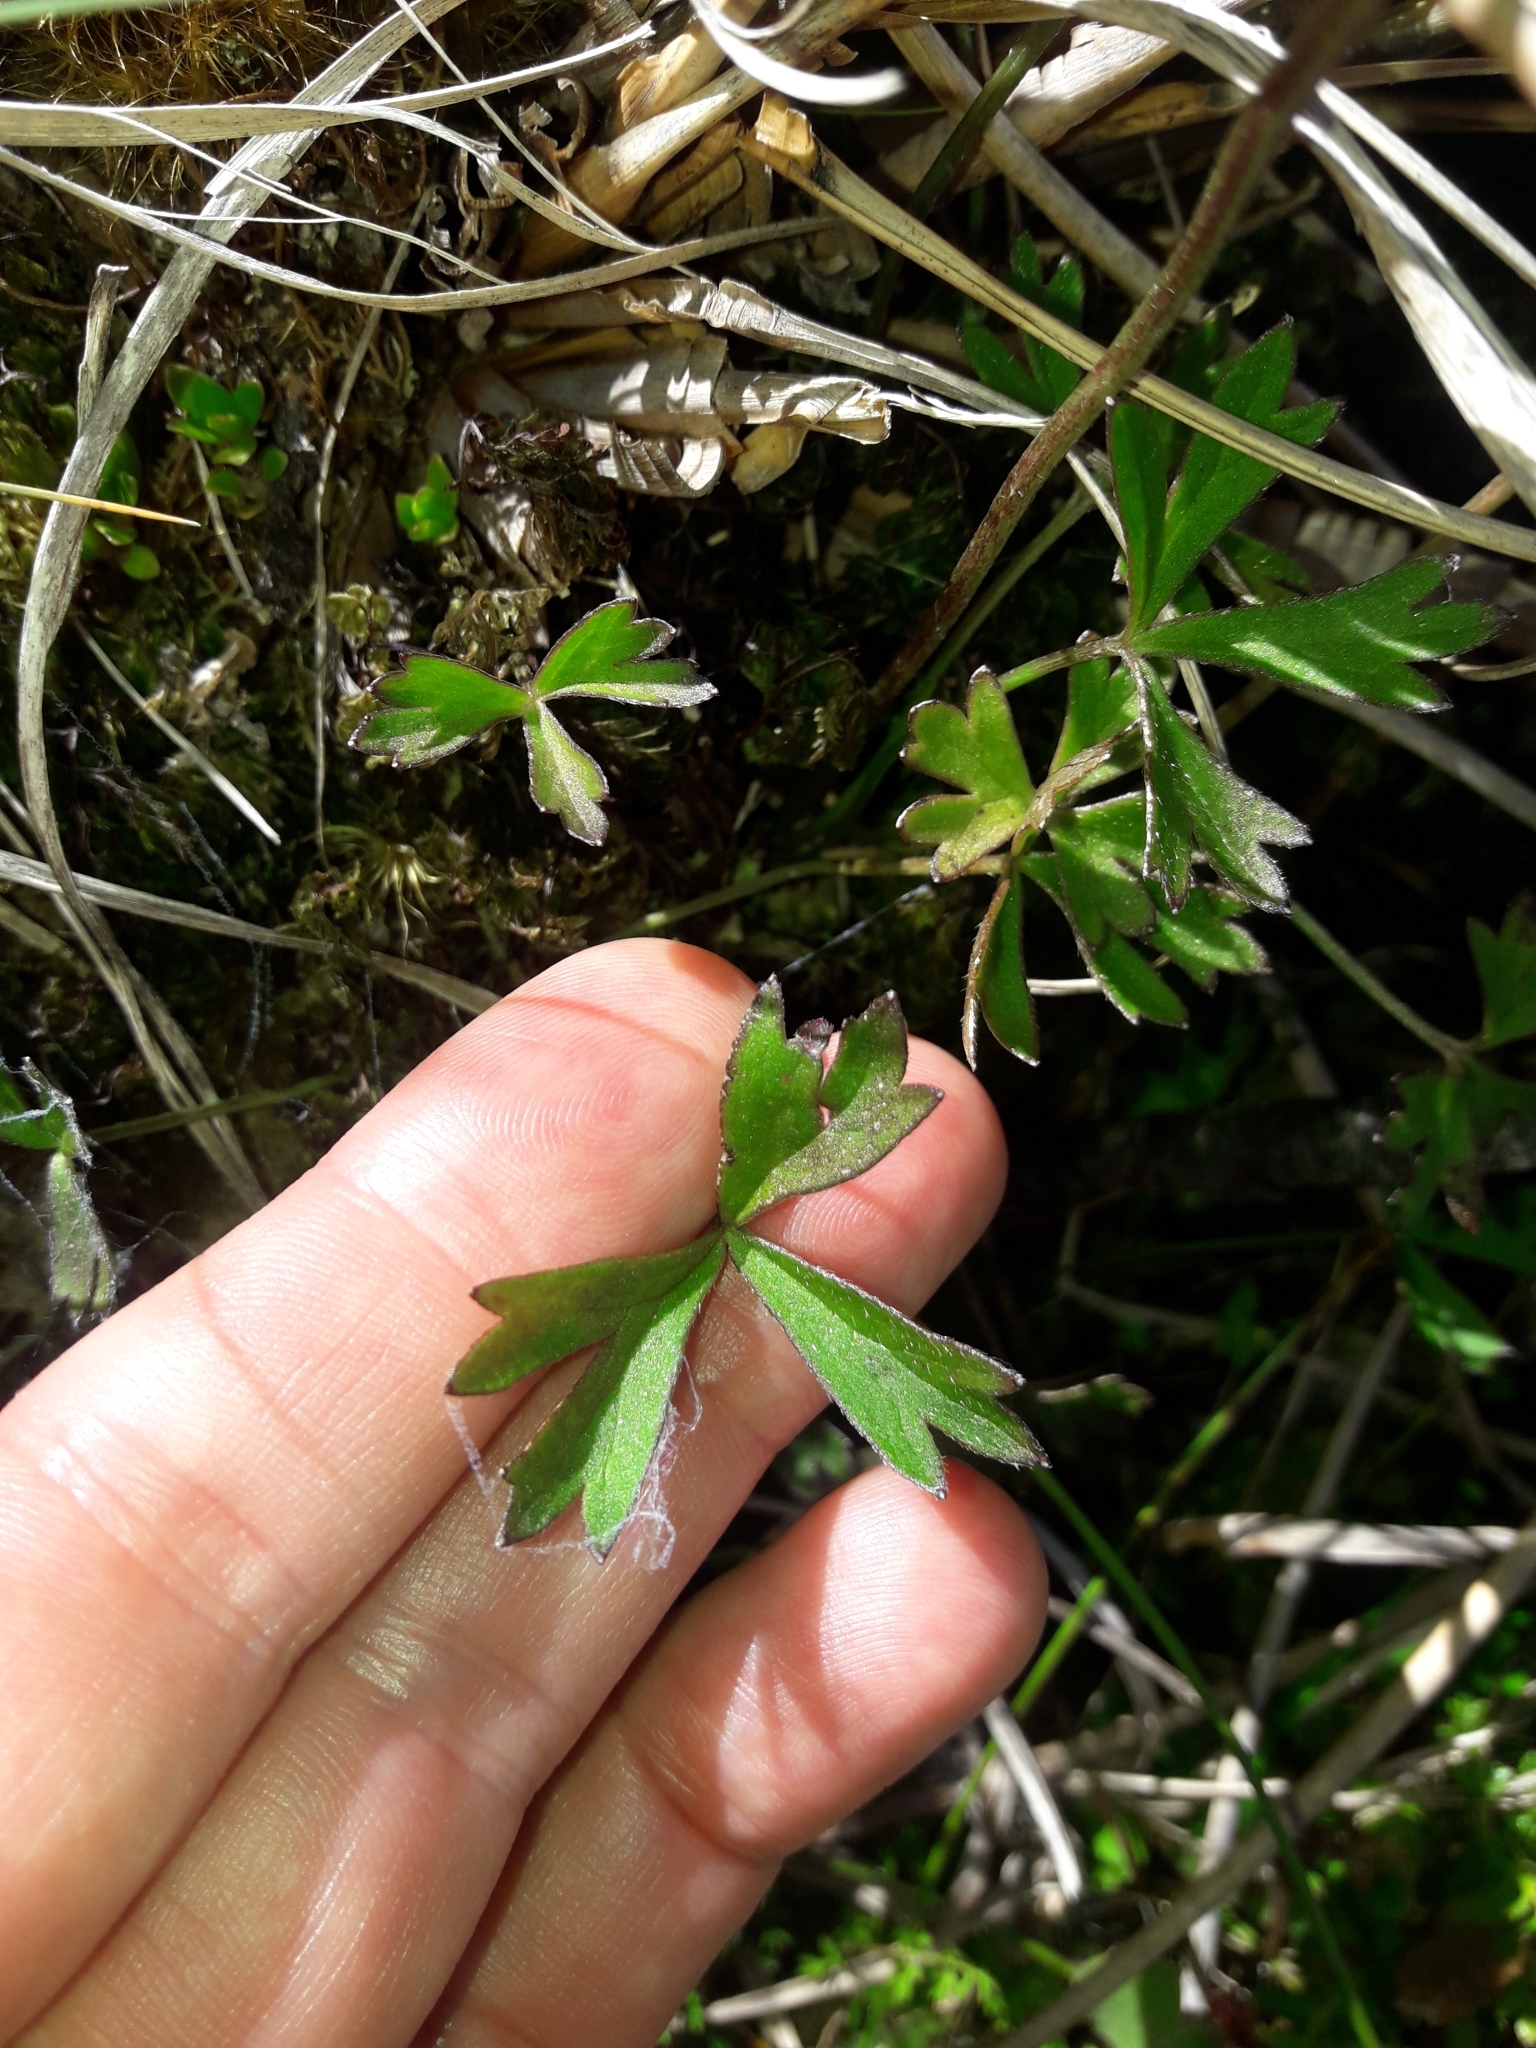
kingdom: Plantae
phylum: Tracheophyta
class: Magnoliopsida
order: Ranunculales
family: Ranunculaceae
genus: Anemonastrum
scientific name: Anemonastrum tenuicaule
